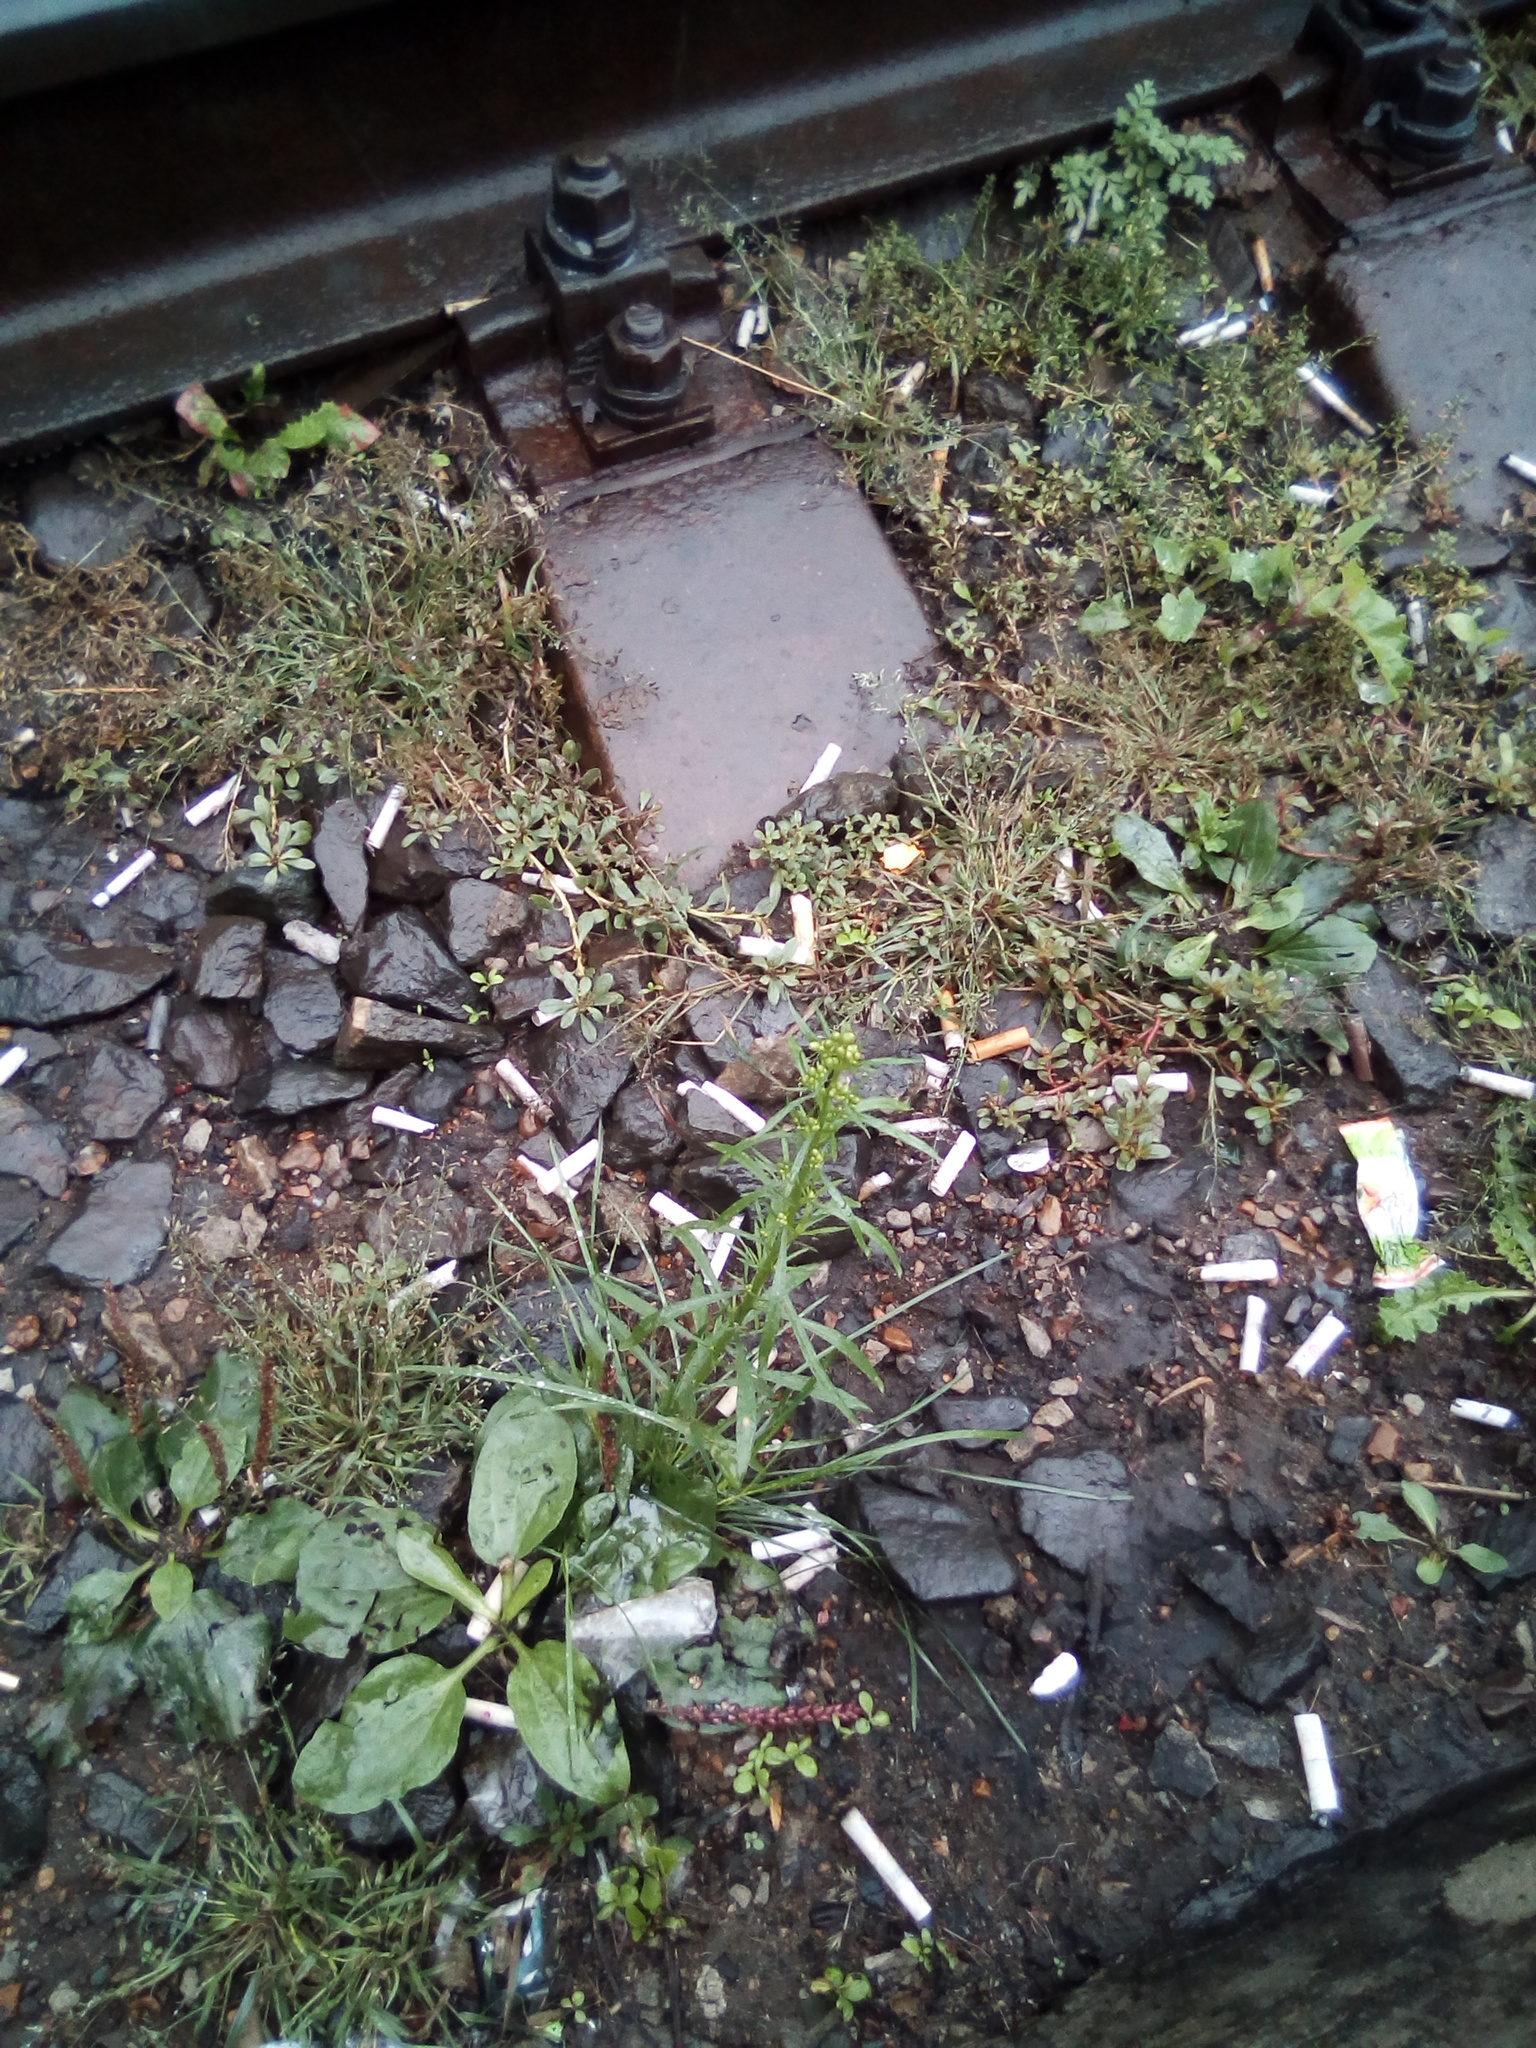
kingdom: Plantae
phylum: Tracheophyta
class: Magnoliopsida
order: Asterales
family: Asteraceae
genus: Erigeron
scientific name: Erigeron canadensis
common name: Canadian fleabane
